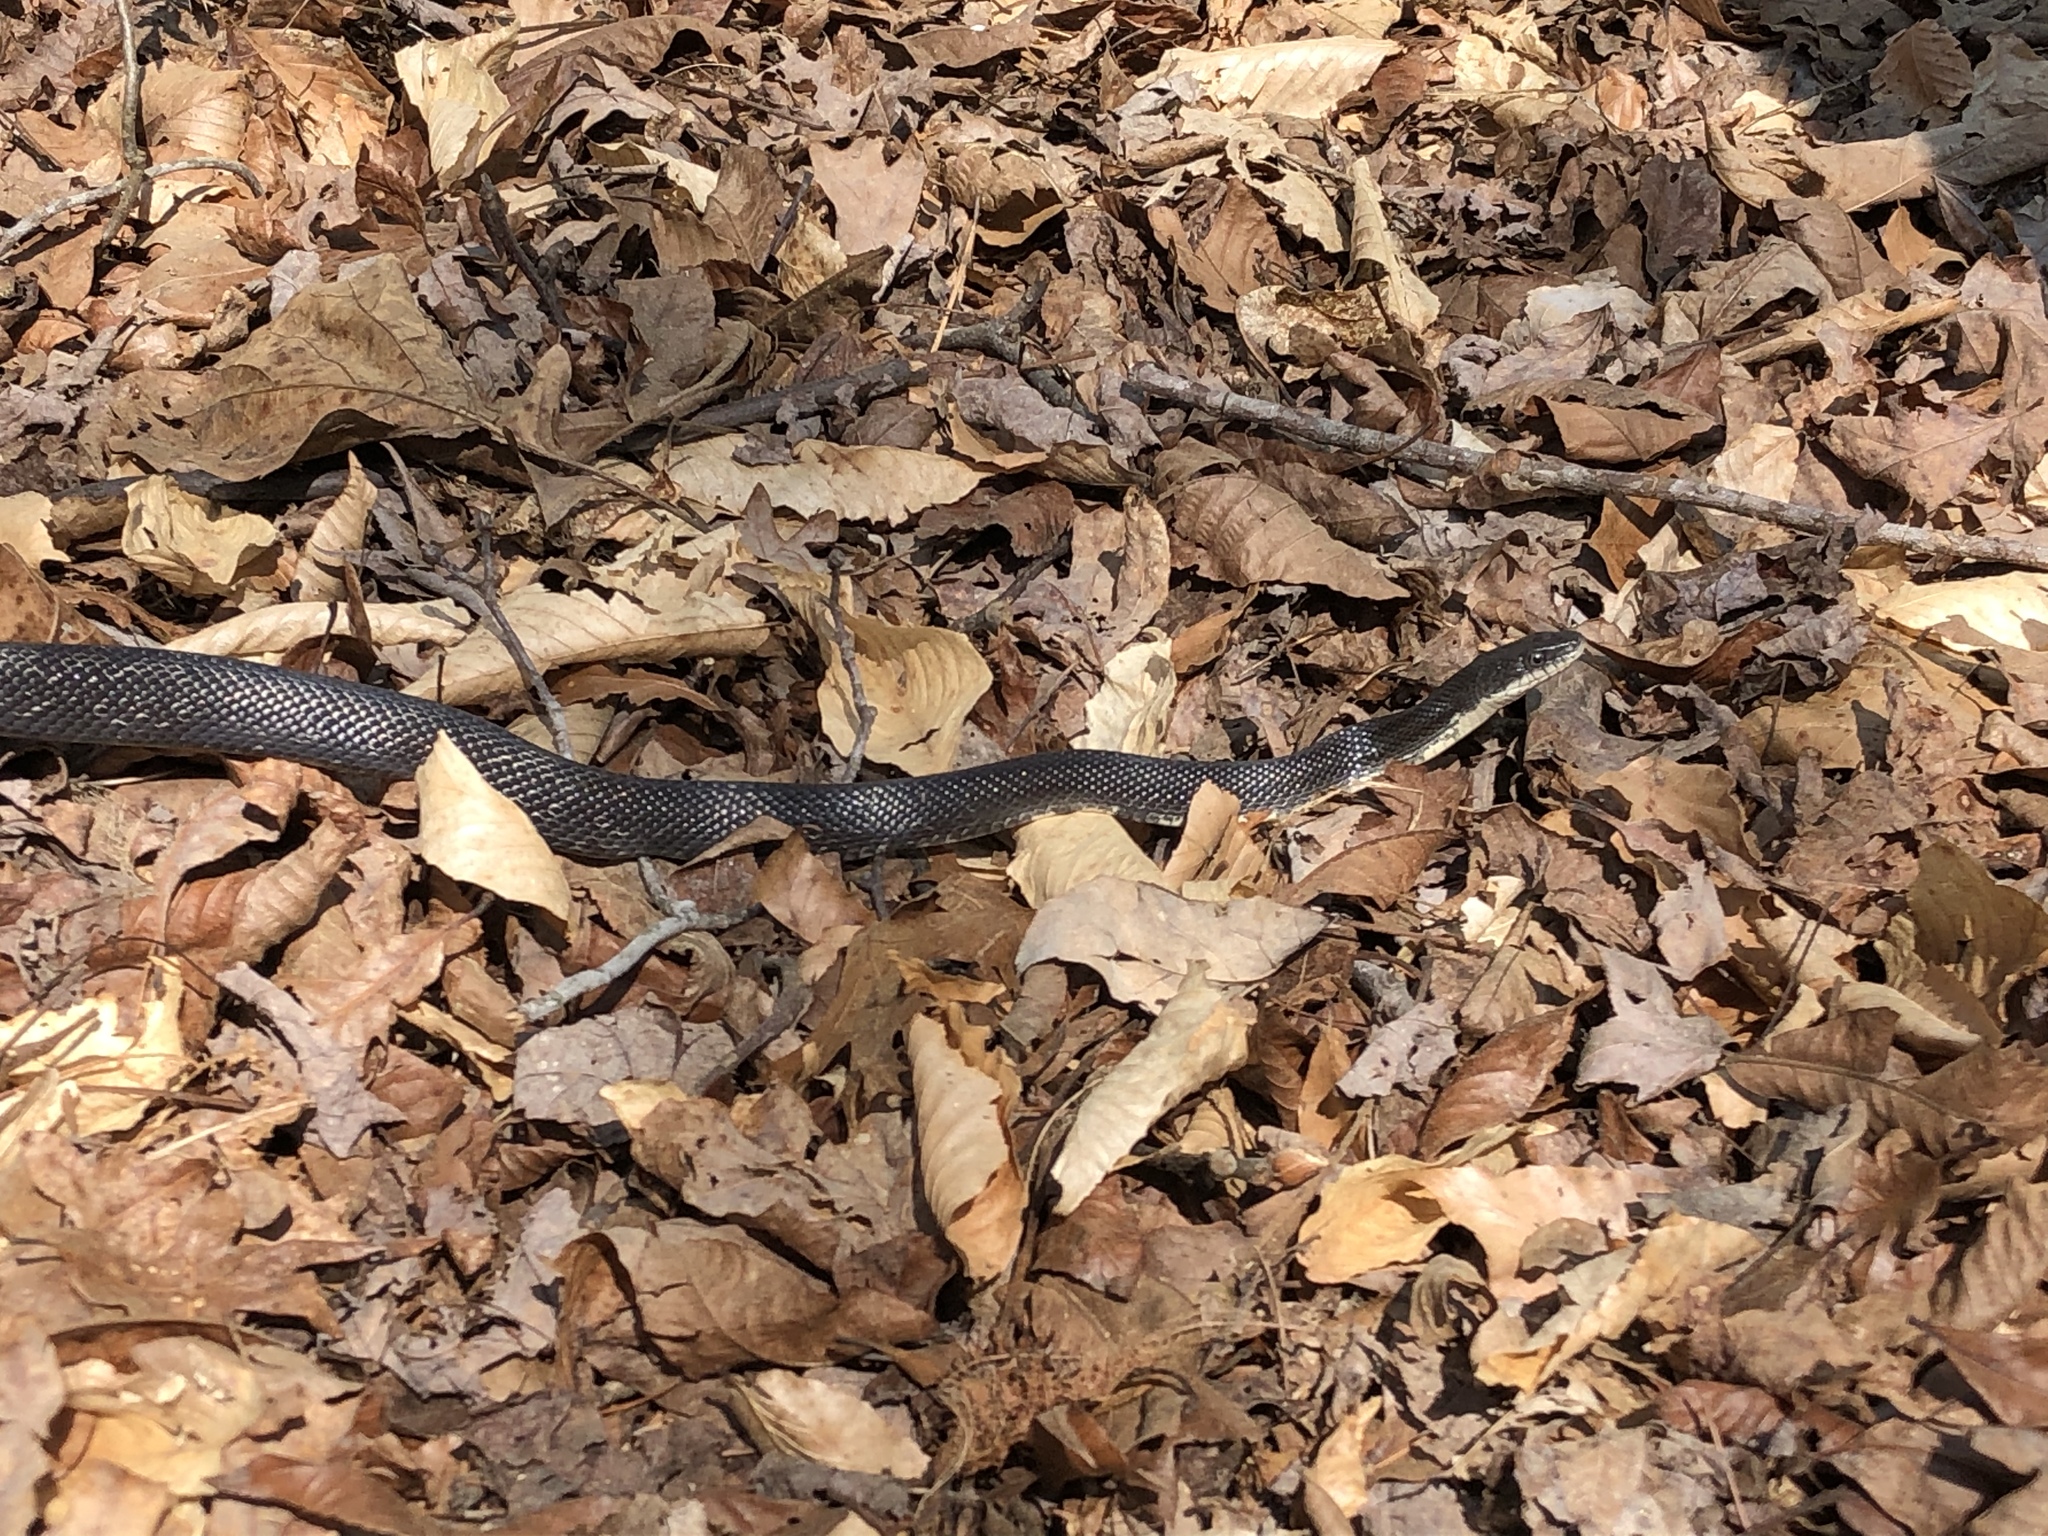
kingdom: Animalia
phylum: Chordata
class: Squamata
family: Colubridae
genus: Pantherophis
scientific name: Pantherophis alleghaniensis
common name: Eastern rat snake
